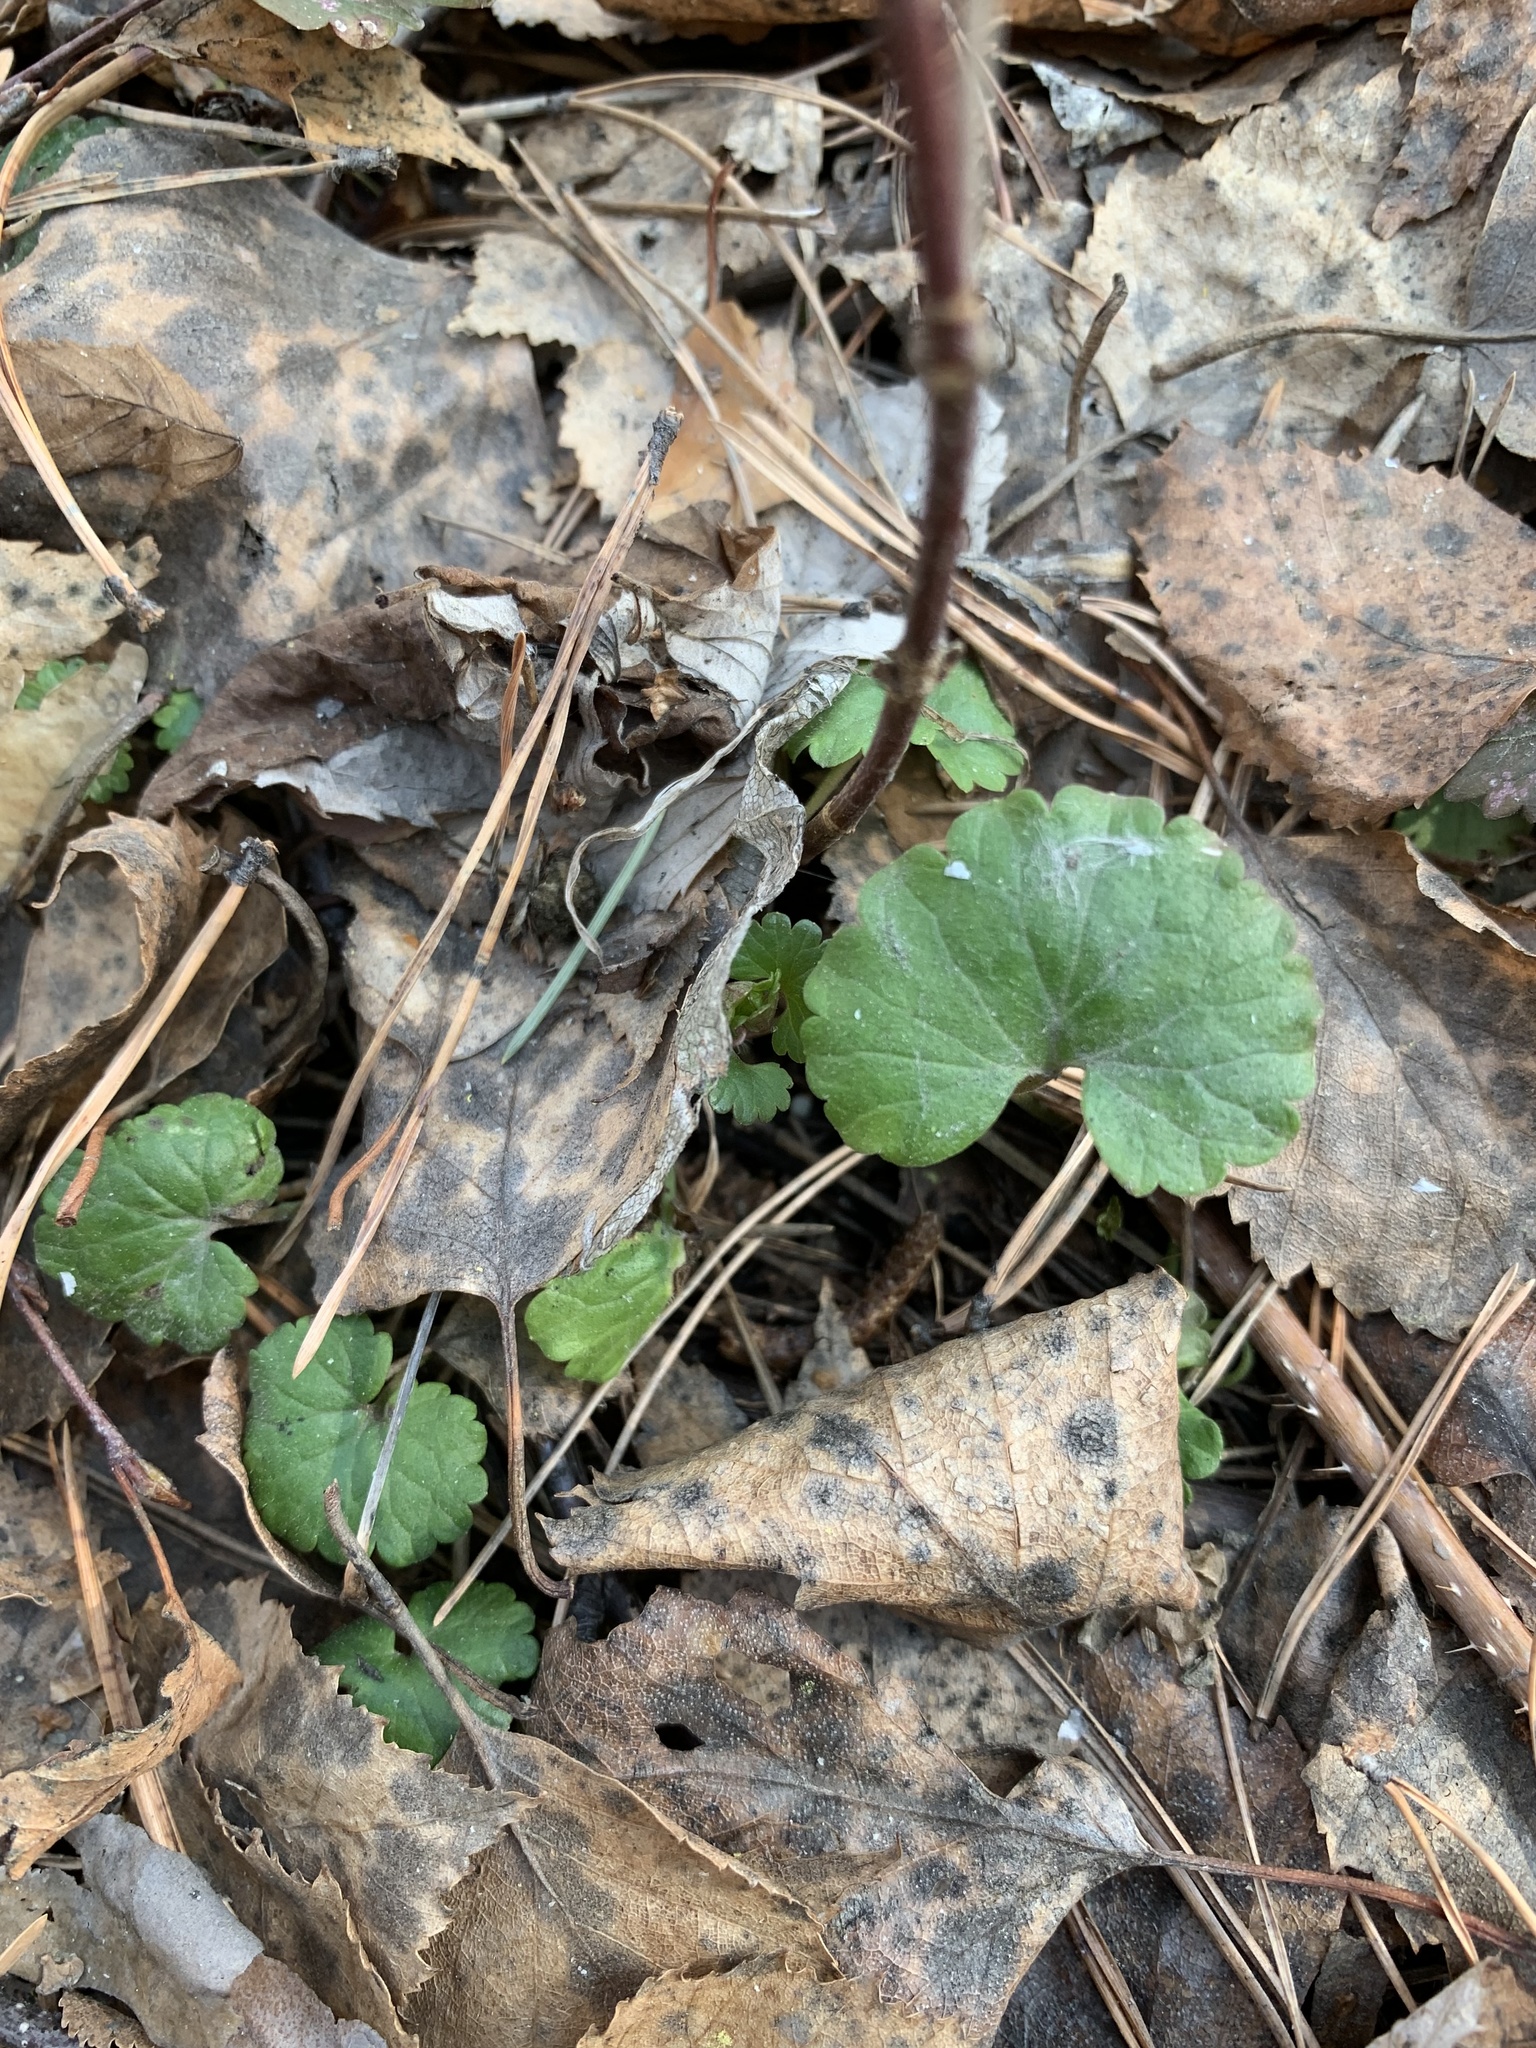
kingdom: Plantae
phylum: Tracheophyta
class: Magnoliopsida
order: Lamiales
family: Lamiaceae
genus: Glechoma
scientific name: Glechoma hederacea
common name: Ground ivy
